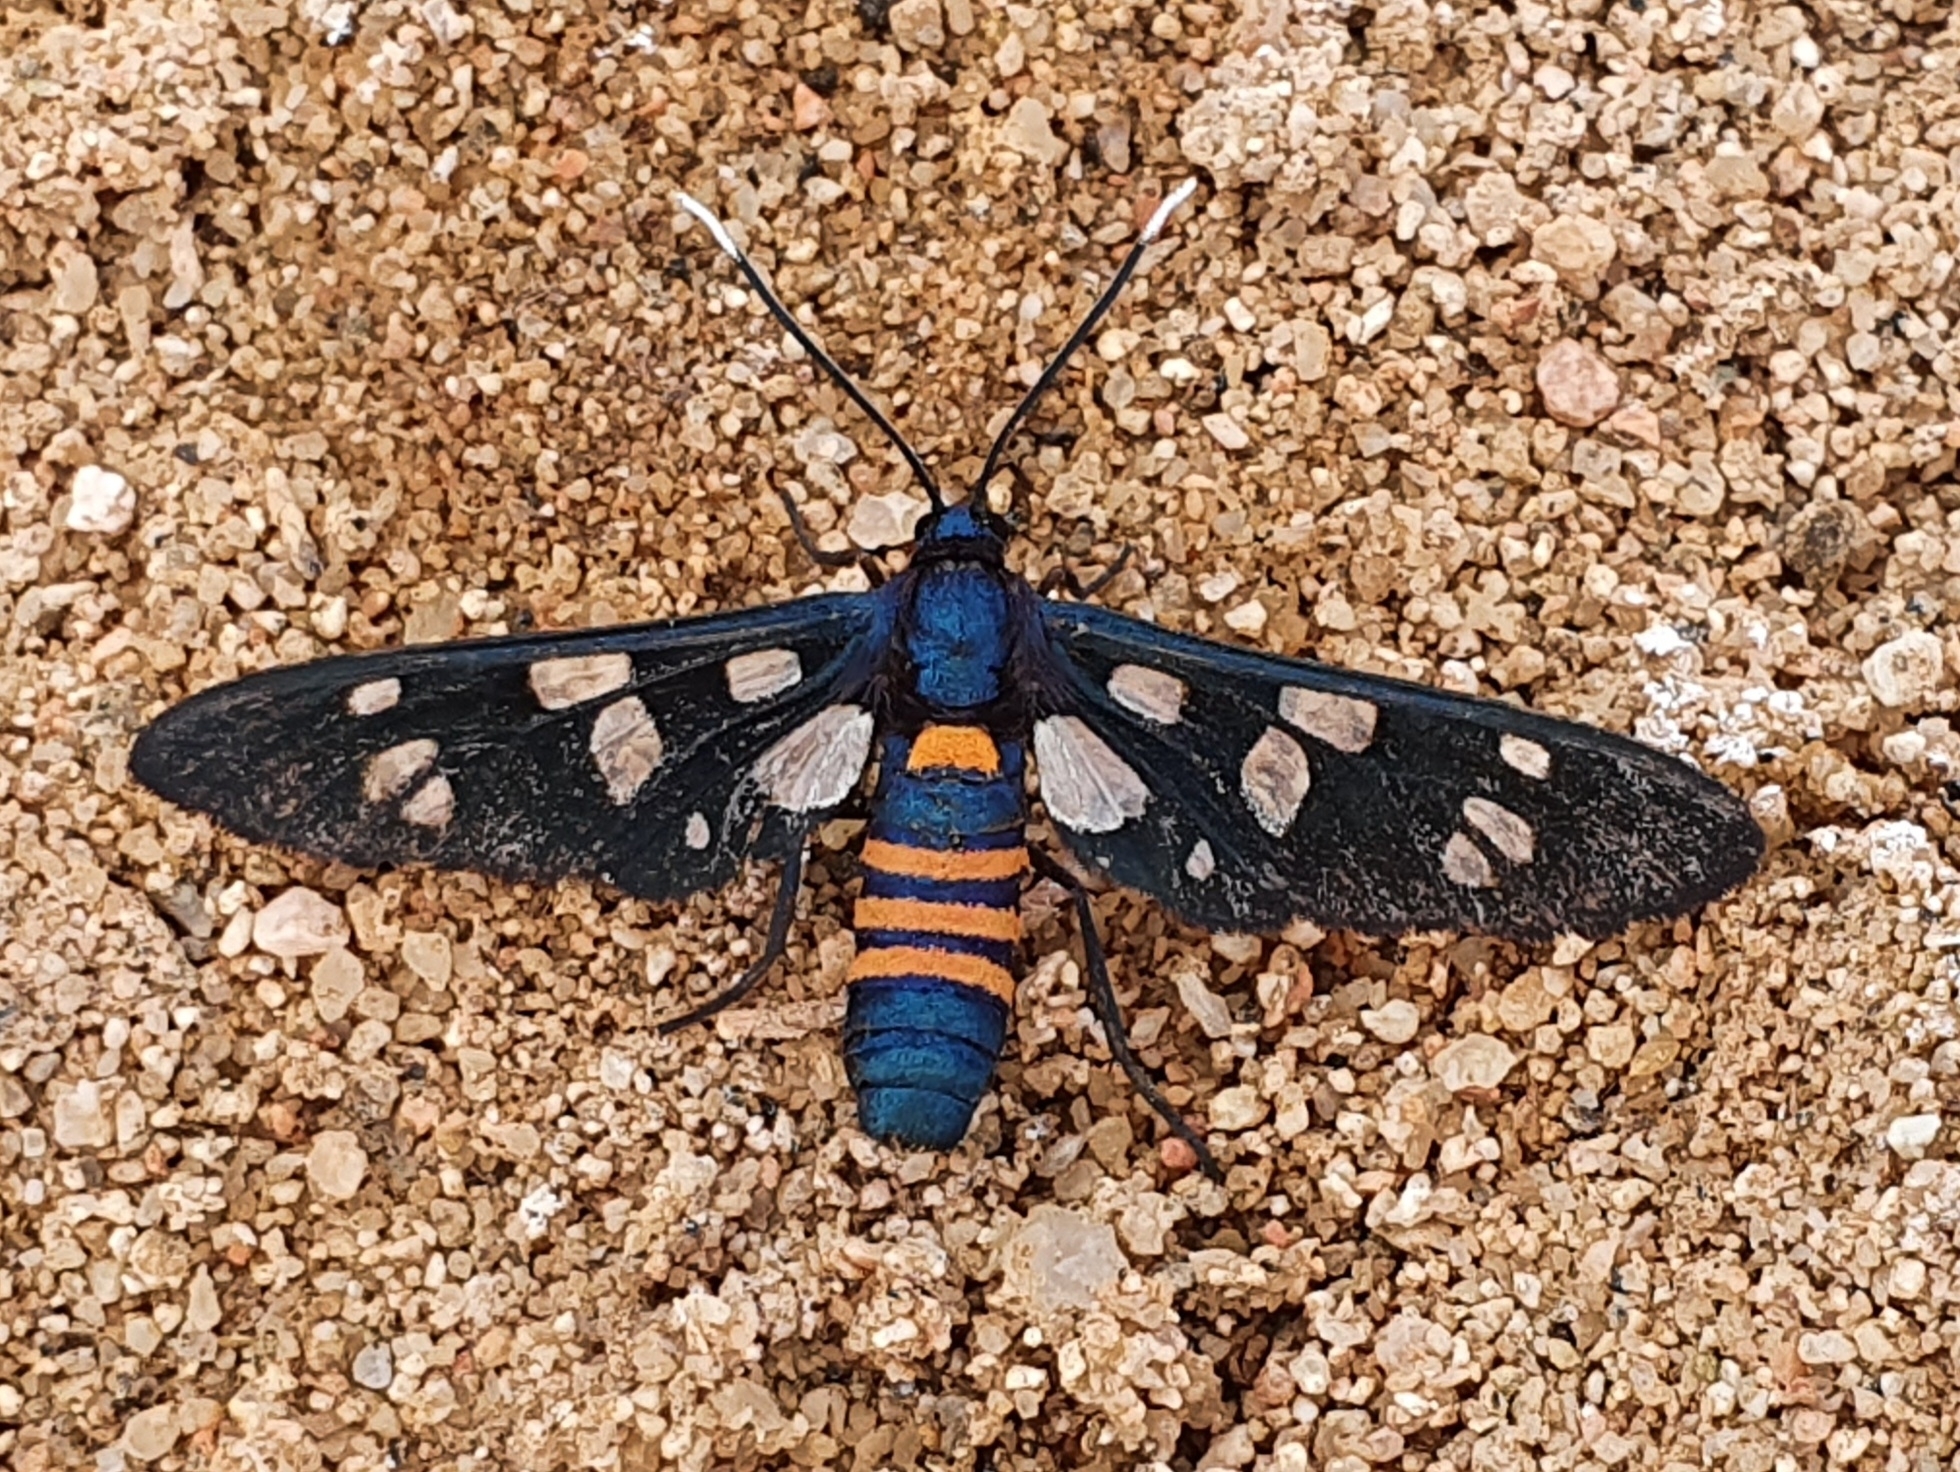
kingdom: Animalia
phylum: Arthropoda
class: Insecta
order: Lepidoptera
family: Erebidae
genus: Amata
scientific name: Amata alicia
